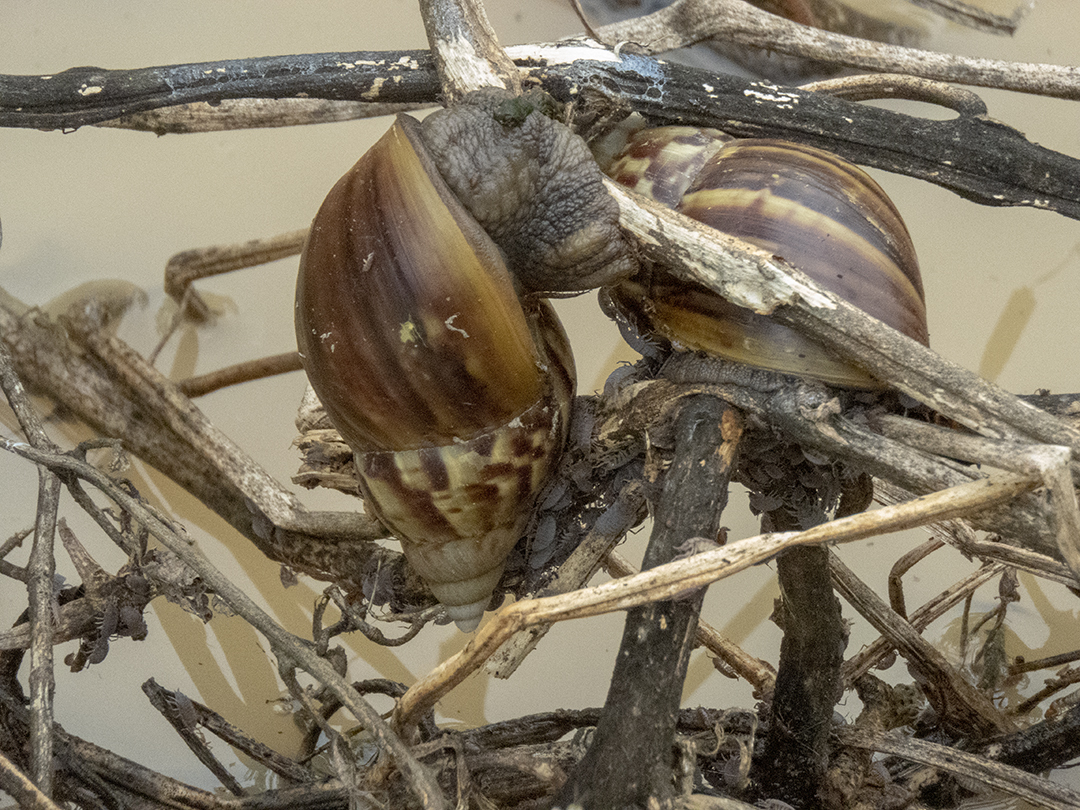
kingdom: Animalia
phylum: Mollusca
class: Gastropoda
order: Stylommatophora
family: Achatinidae
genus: Lissachatina
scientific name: Lissachatina fulica
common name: Giant african snail
